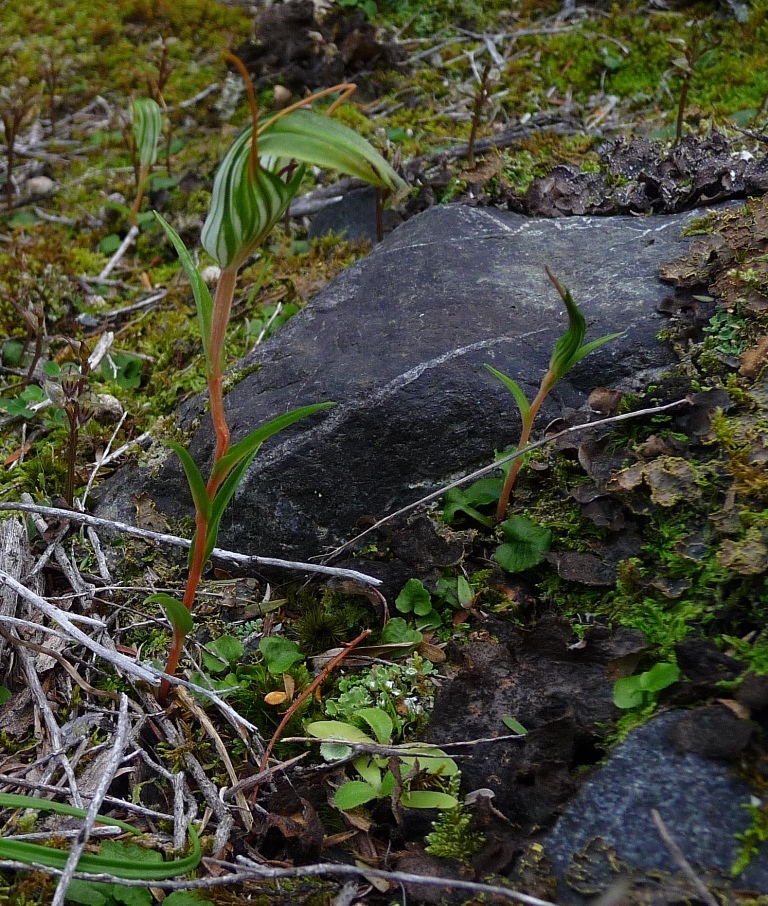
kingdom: Plantae
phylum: Tracheophyta
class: Liliopsida
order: Asparagales
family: Orchidaceae
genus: Pterostylis
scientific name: Pterostylis alobula
